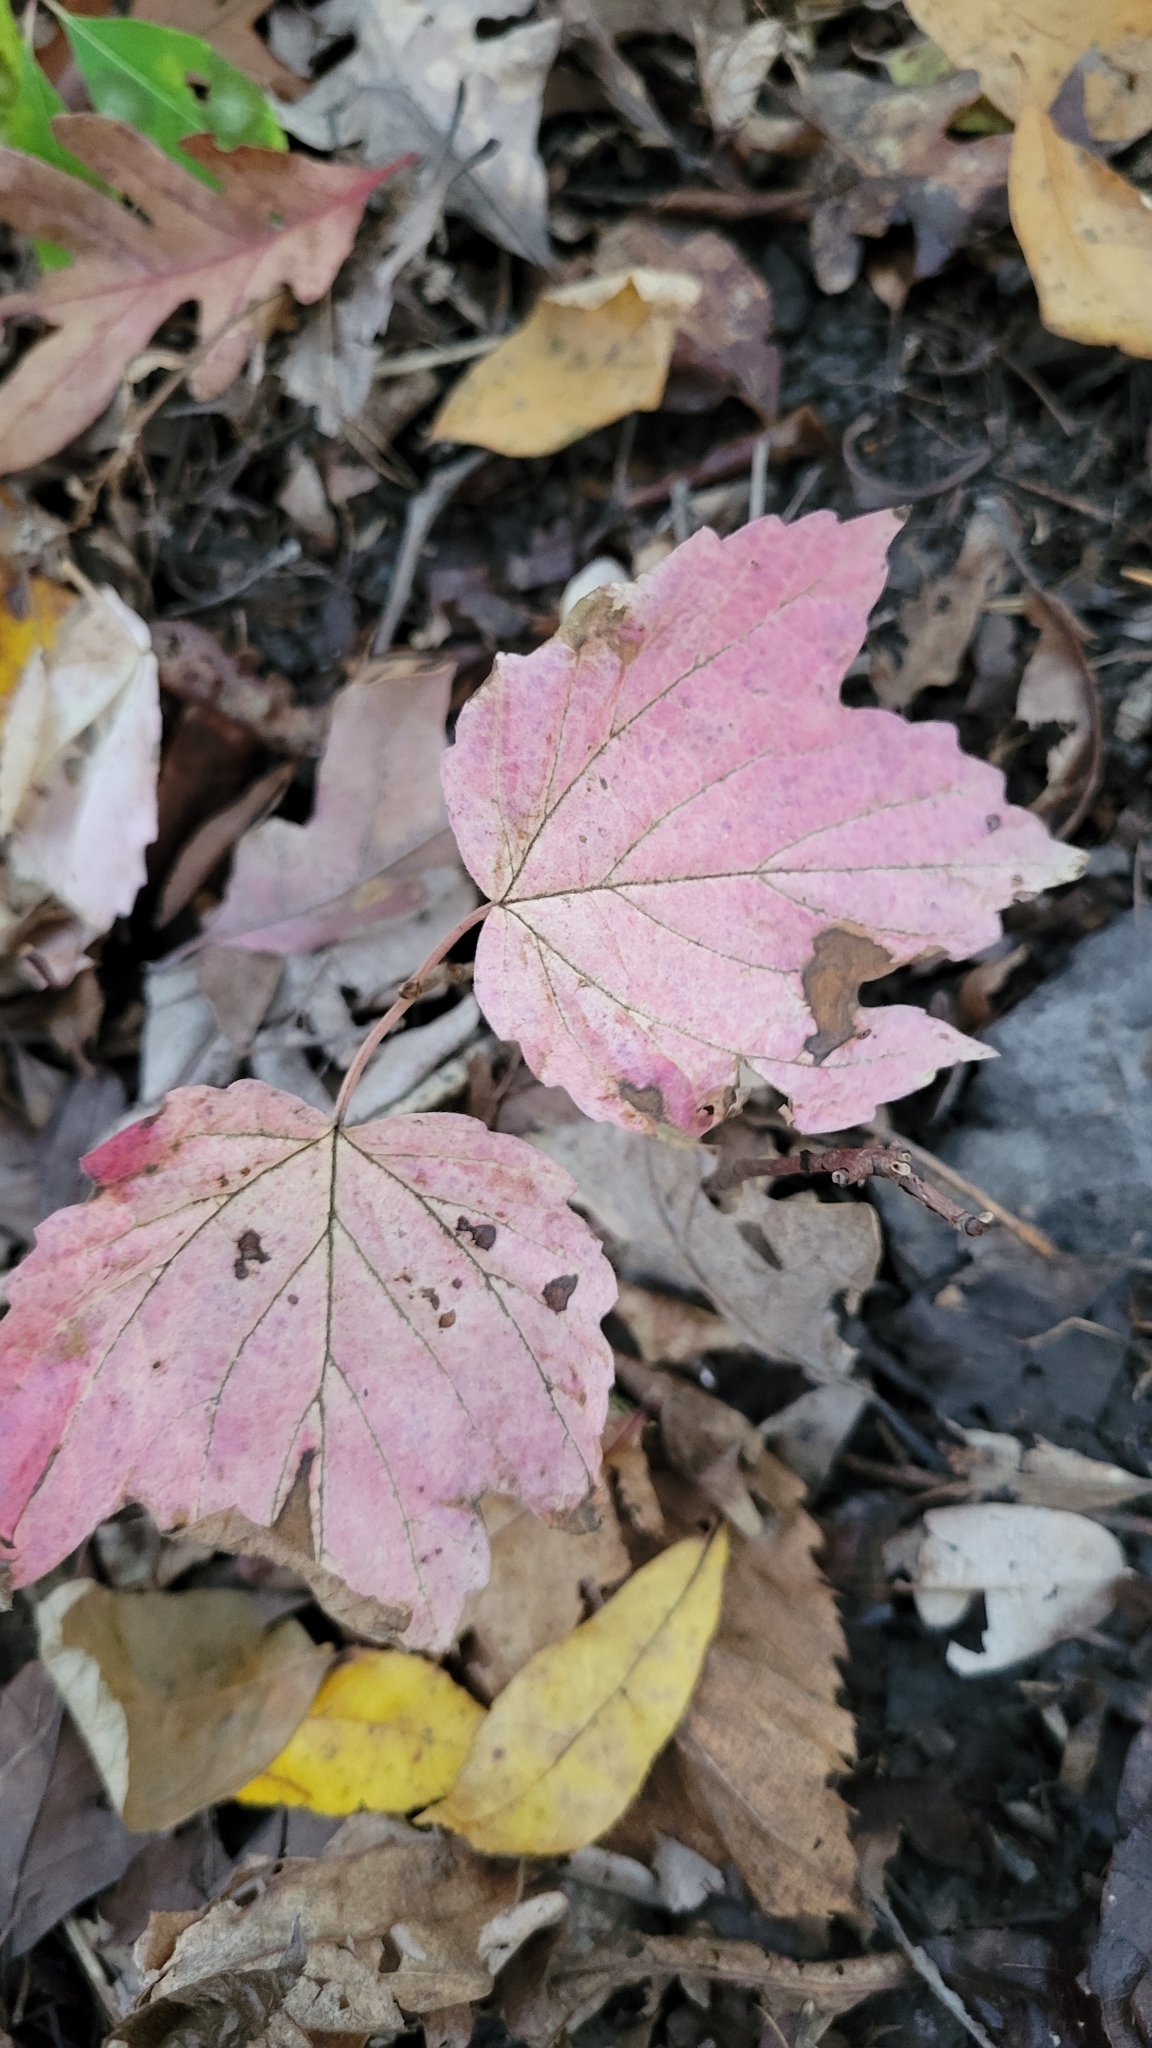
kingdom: Plantae
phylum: Tracheophyta
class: Magnoliopsida
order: Dipsacales
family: Viburnaceae
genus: Viburnum
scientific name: Viburnum acerifolium
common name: Dockmackie
